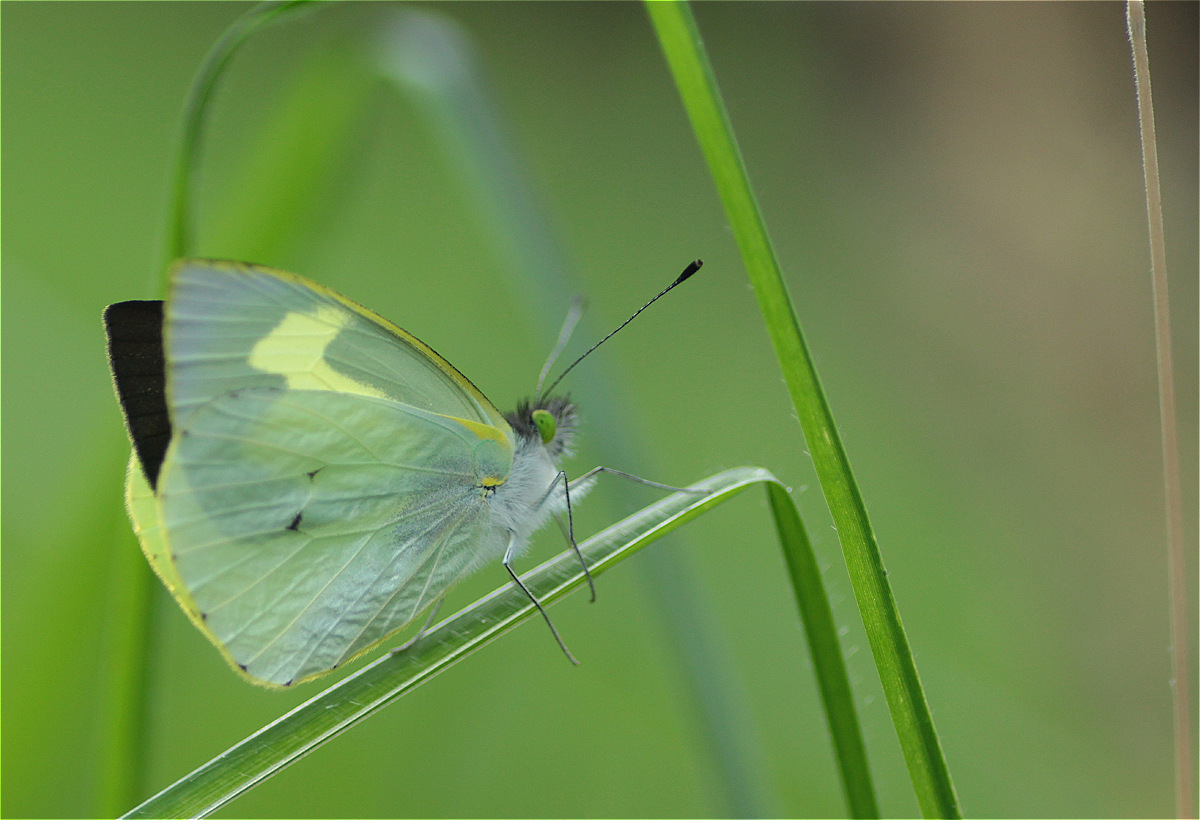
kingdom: Animalia
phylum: Arthropoda
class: Insecta
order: Lepidoptera
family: Pieridae
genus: Leptophobia
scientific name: Leptophobia eleone
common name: Silky wanderer
